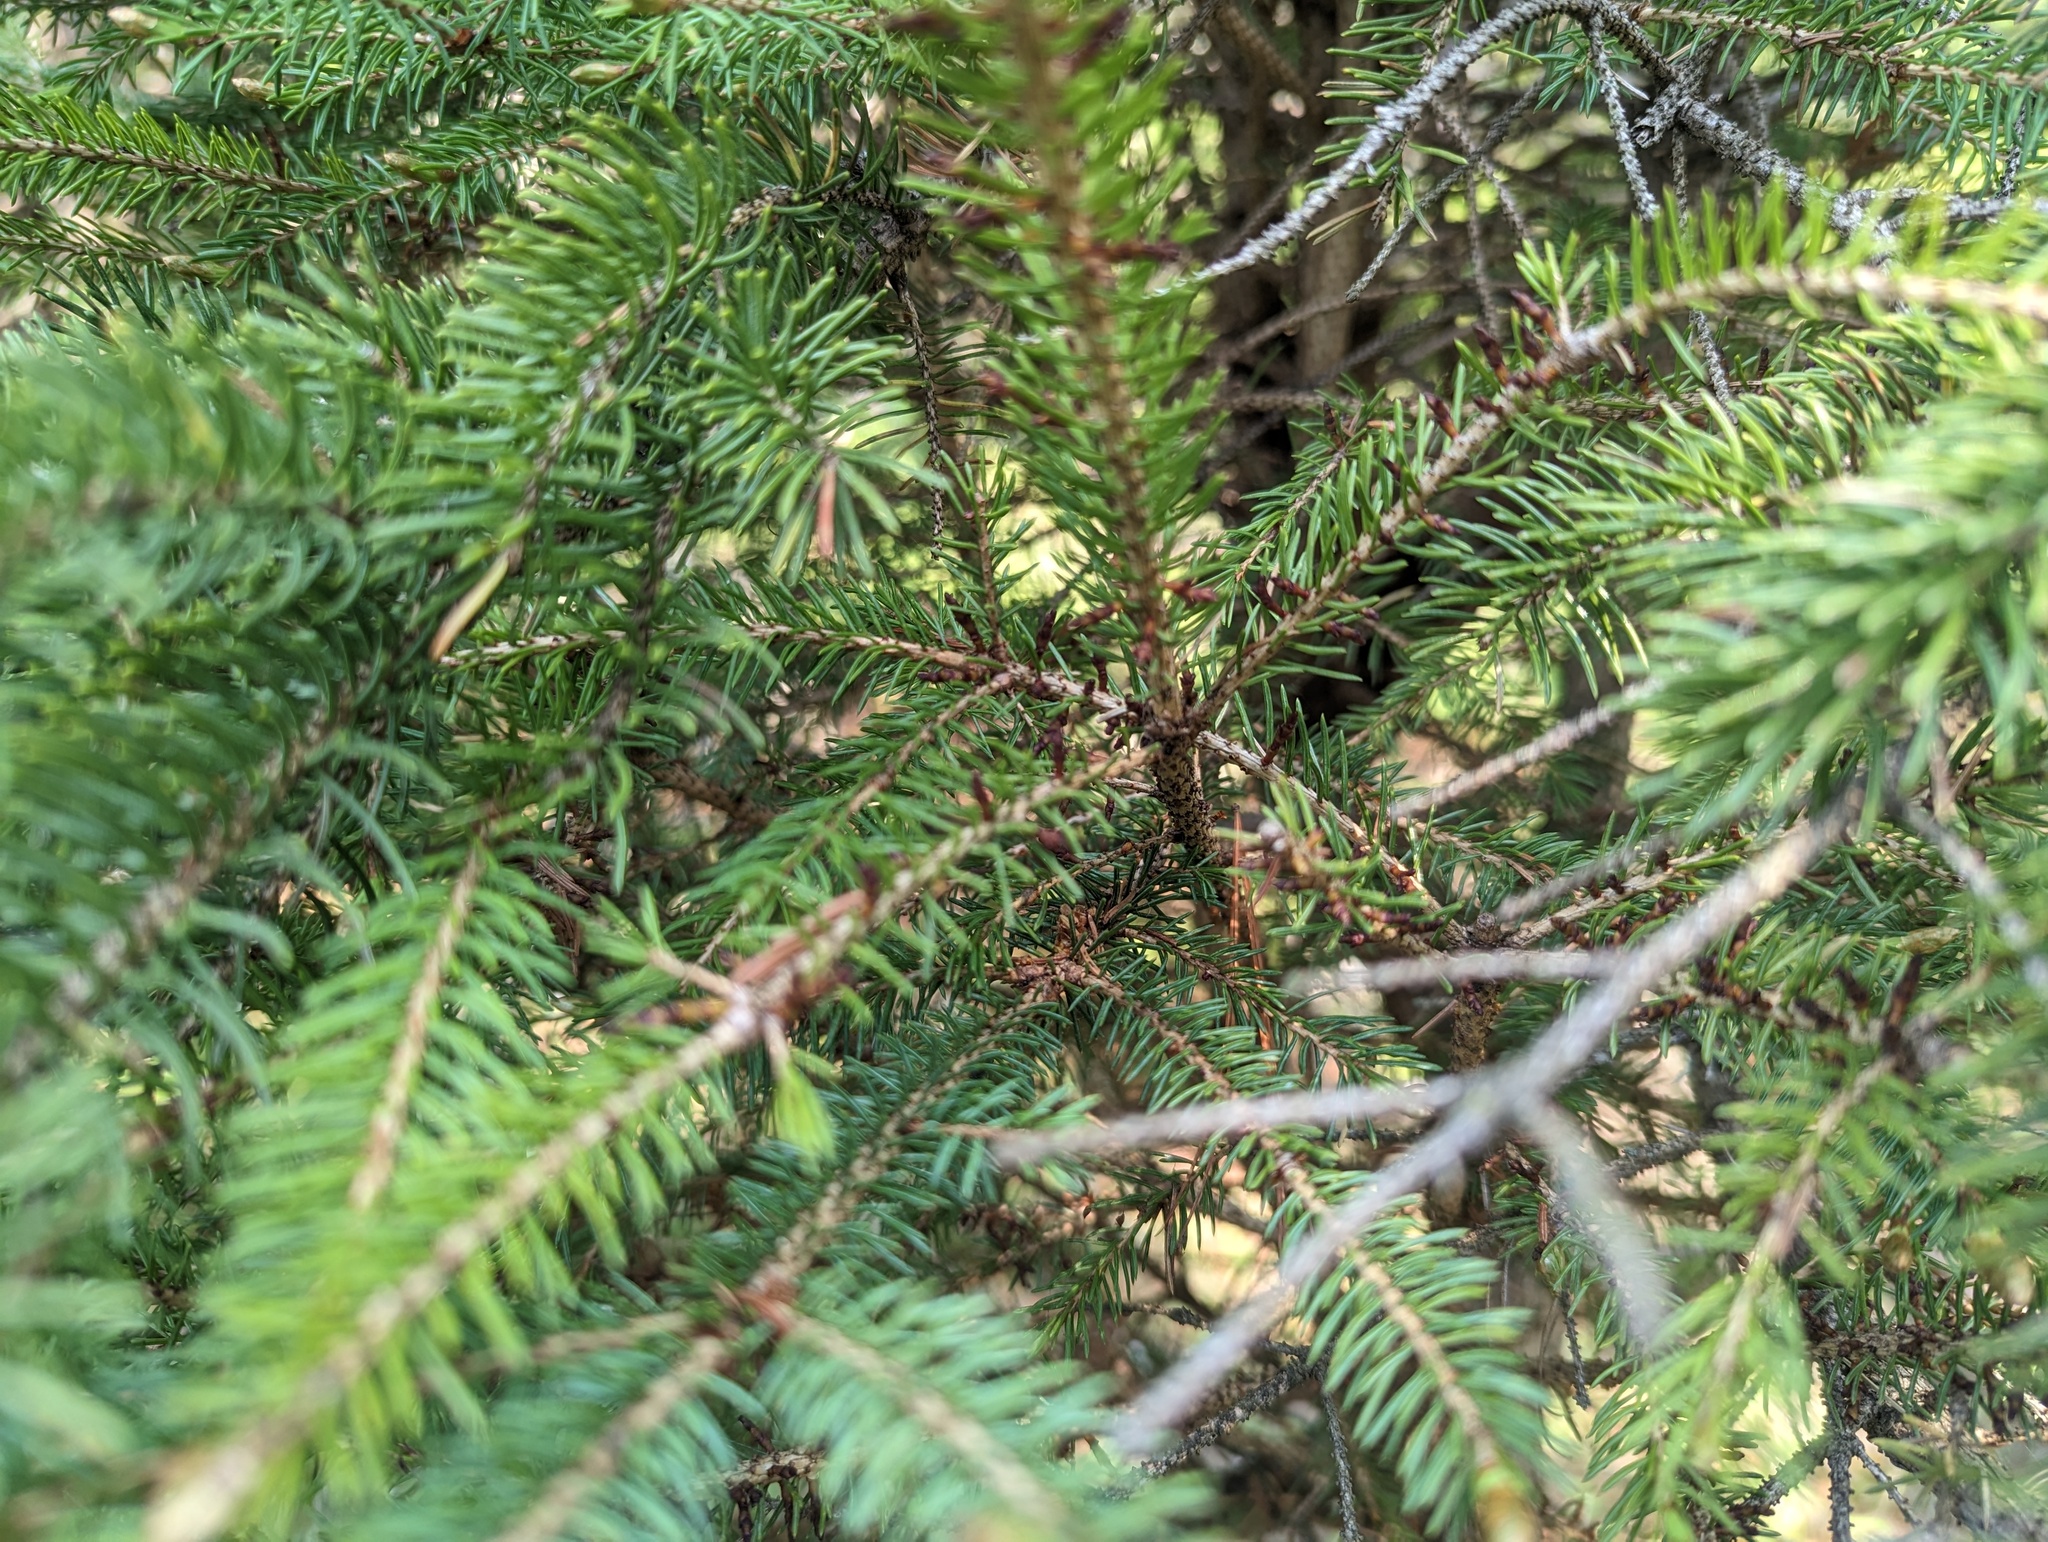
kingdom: Plantae
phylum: Tracheophyta
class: Magnoliopsida
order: Santalales
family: Viscaceae
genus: Arceuthobium
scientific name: Arceuthobium pusillum
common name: Dwarf-mistletoe
